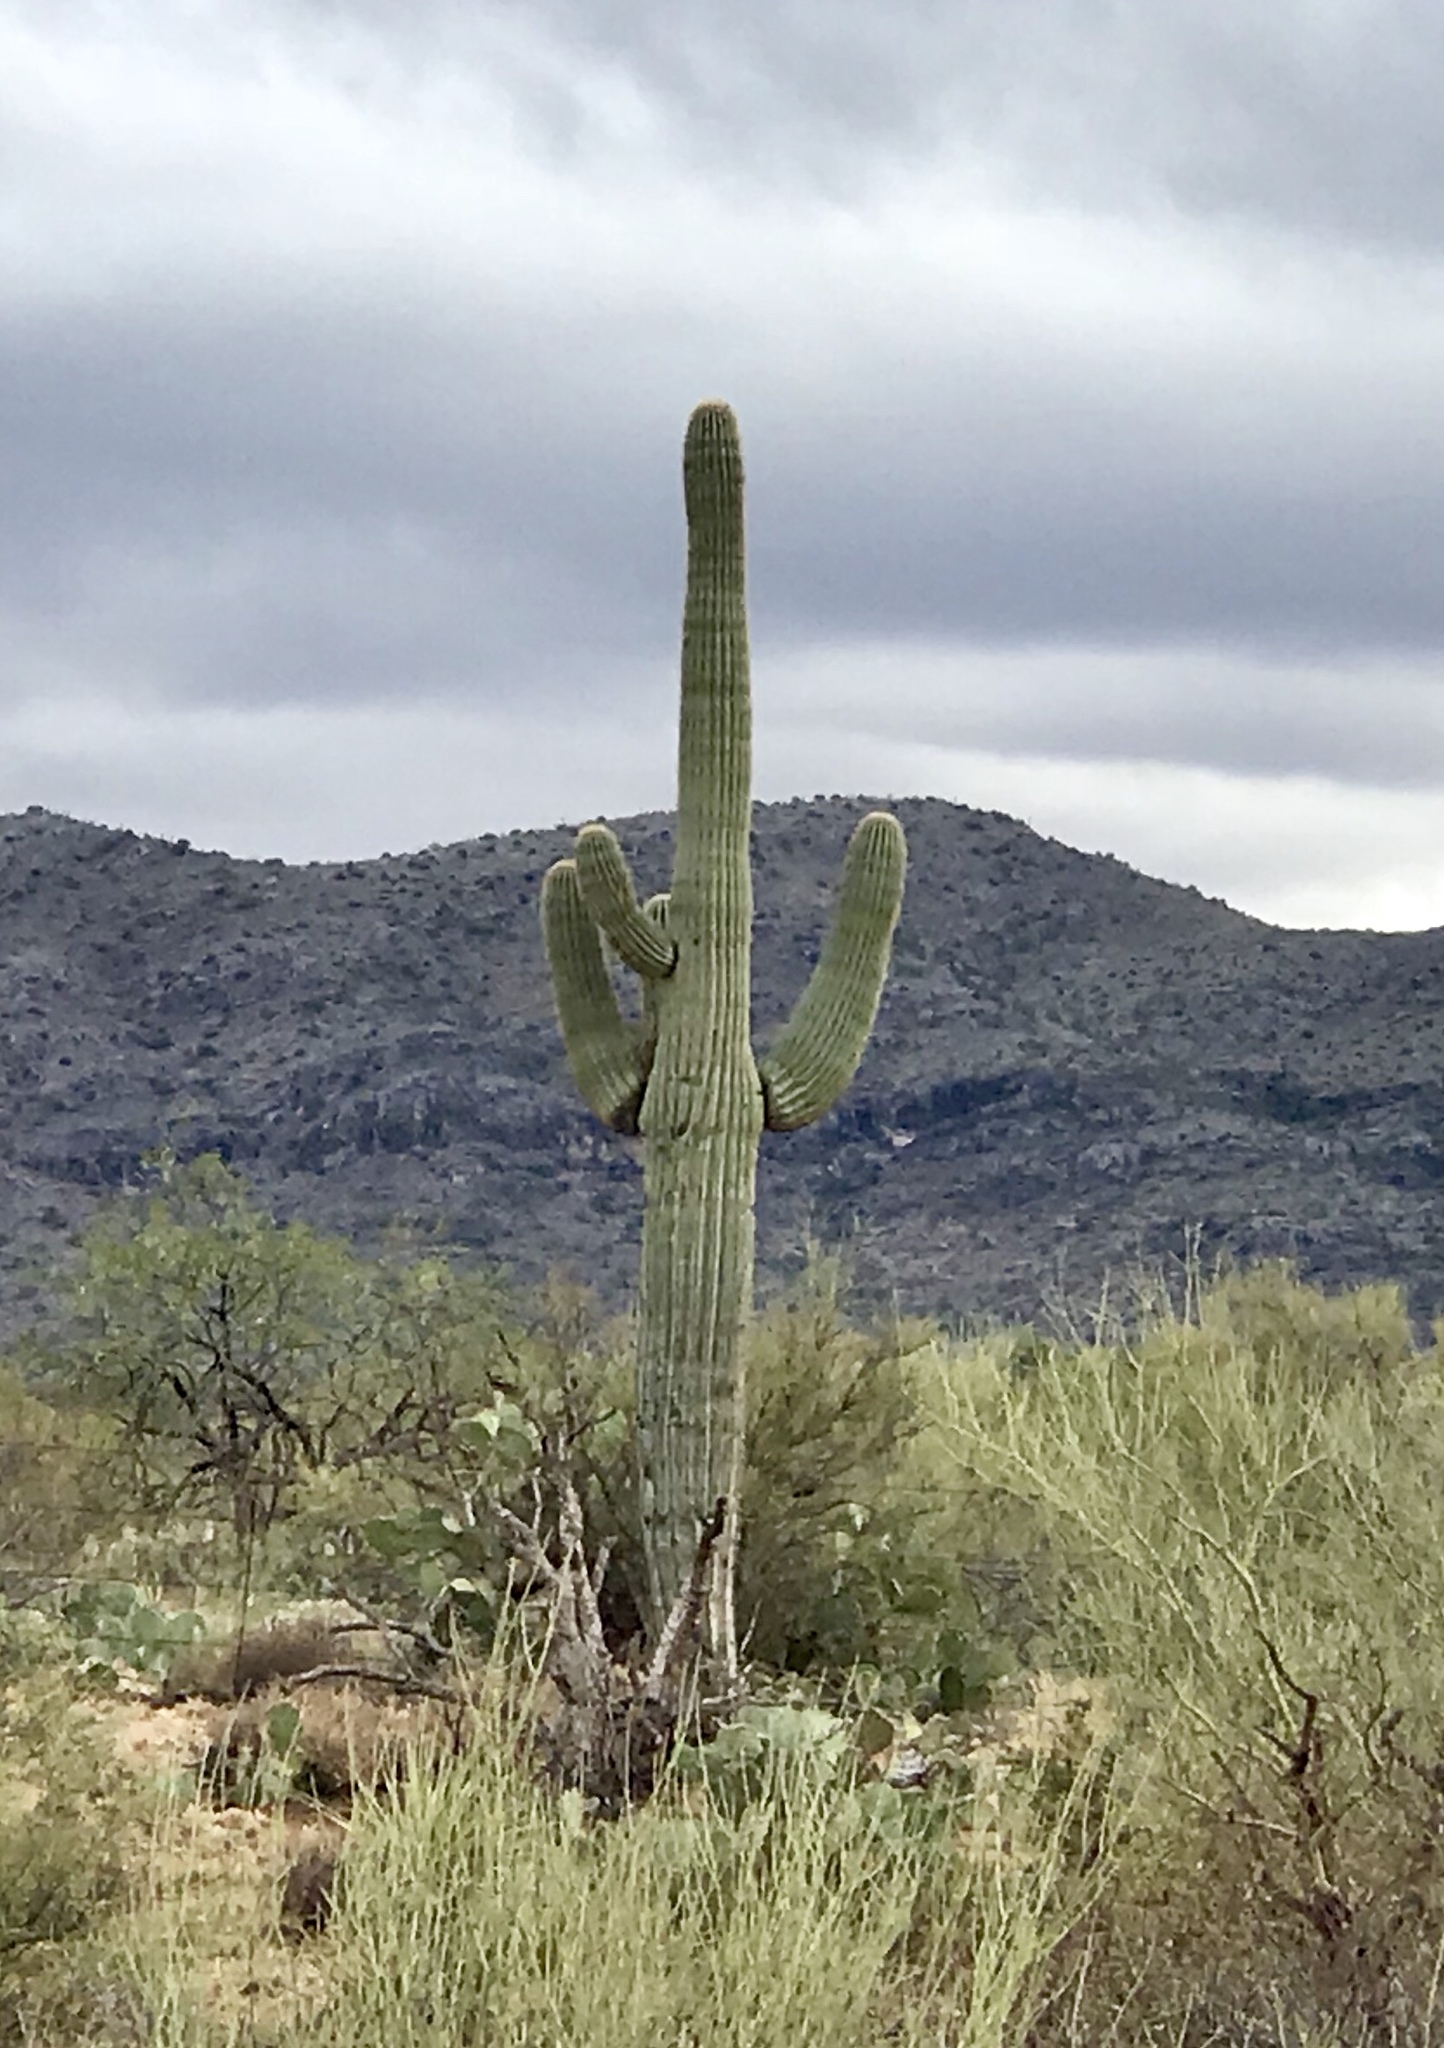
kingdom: Plantae
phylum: Tracheophyta
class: Magnoliopsida
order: Caryophyllales
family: Cactaceae
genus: Carnegiea
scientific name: Carnegiea gigantea
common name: Saguaro
